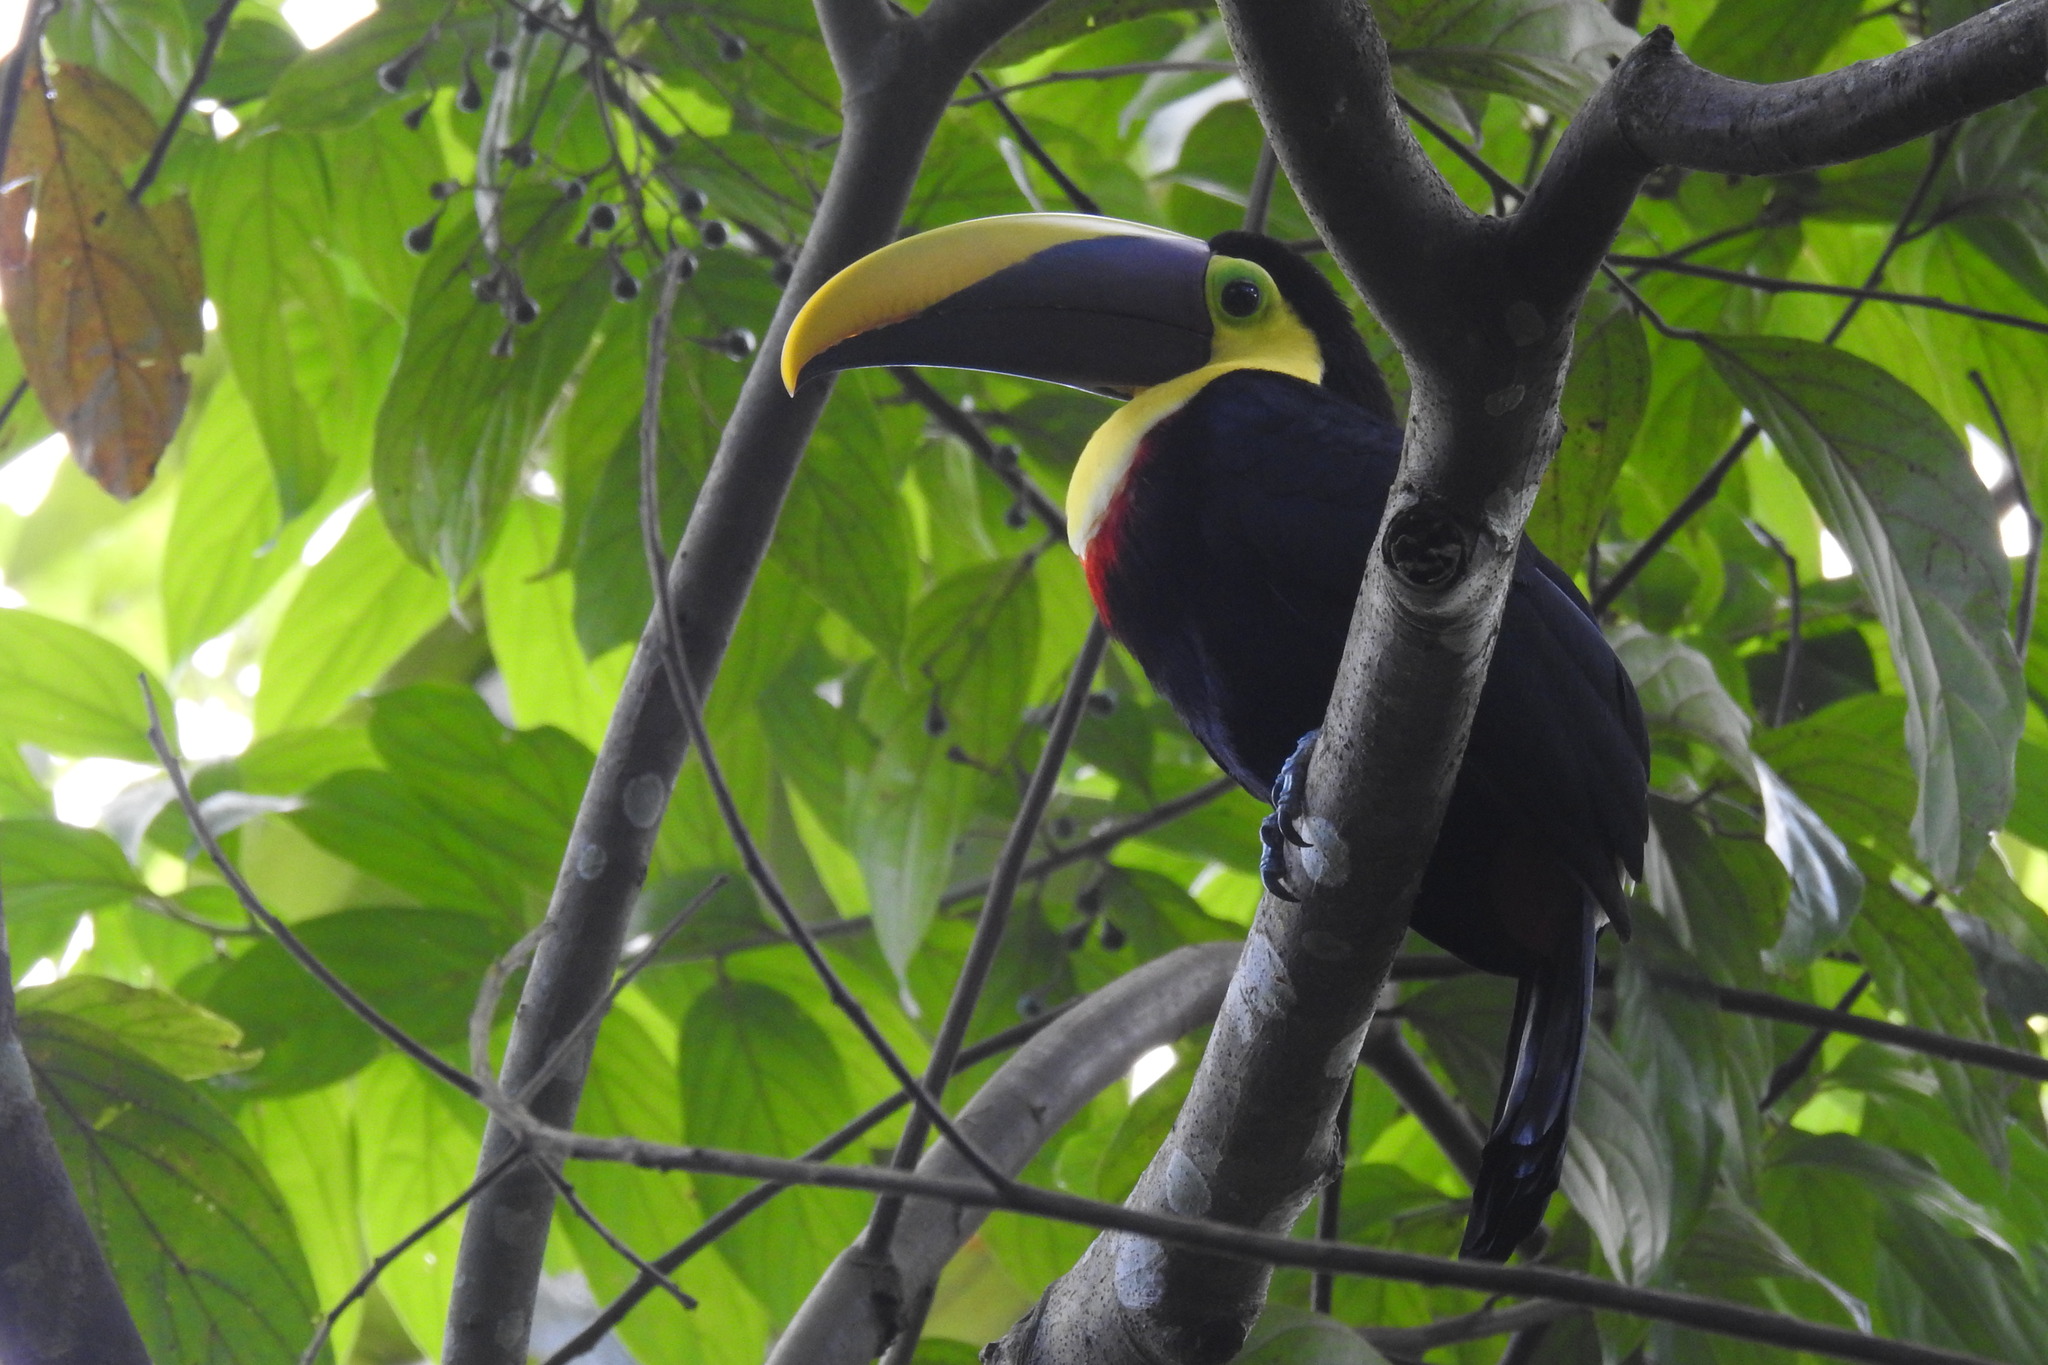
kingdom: Animalia
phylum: Chordata
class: Aves
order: Piciformes
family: Ramphastidae
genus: Ramphastos
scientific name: Ramphastos ambiguus
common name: Yellow-throated toucan
